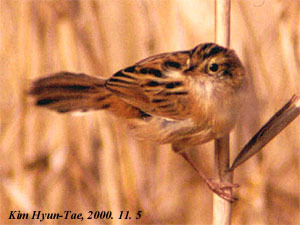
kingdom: Animalia
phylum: Chordata
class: Aves
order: Passeriformes
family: Cisticolidae
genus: Cisticola
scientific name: Cisticola juncidis
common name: Zitting cisticola
